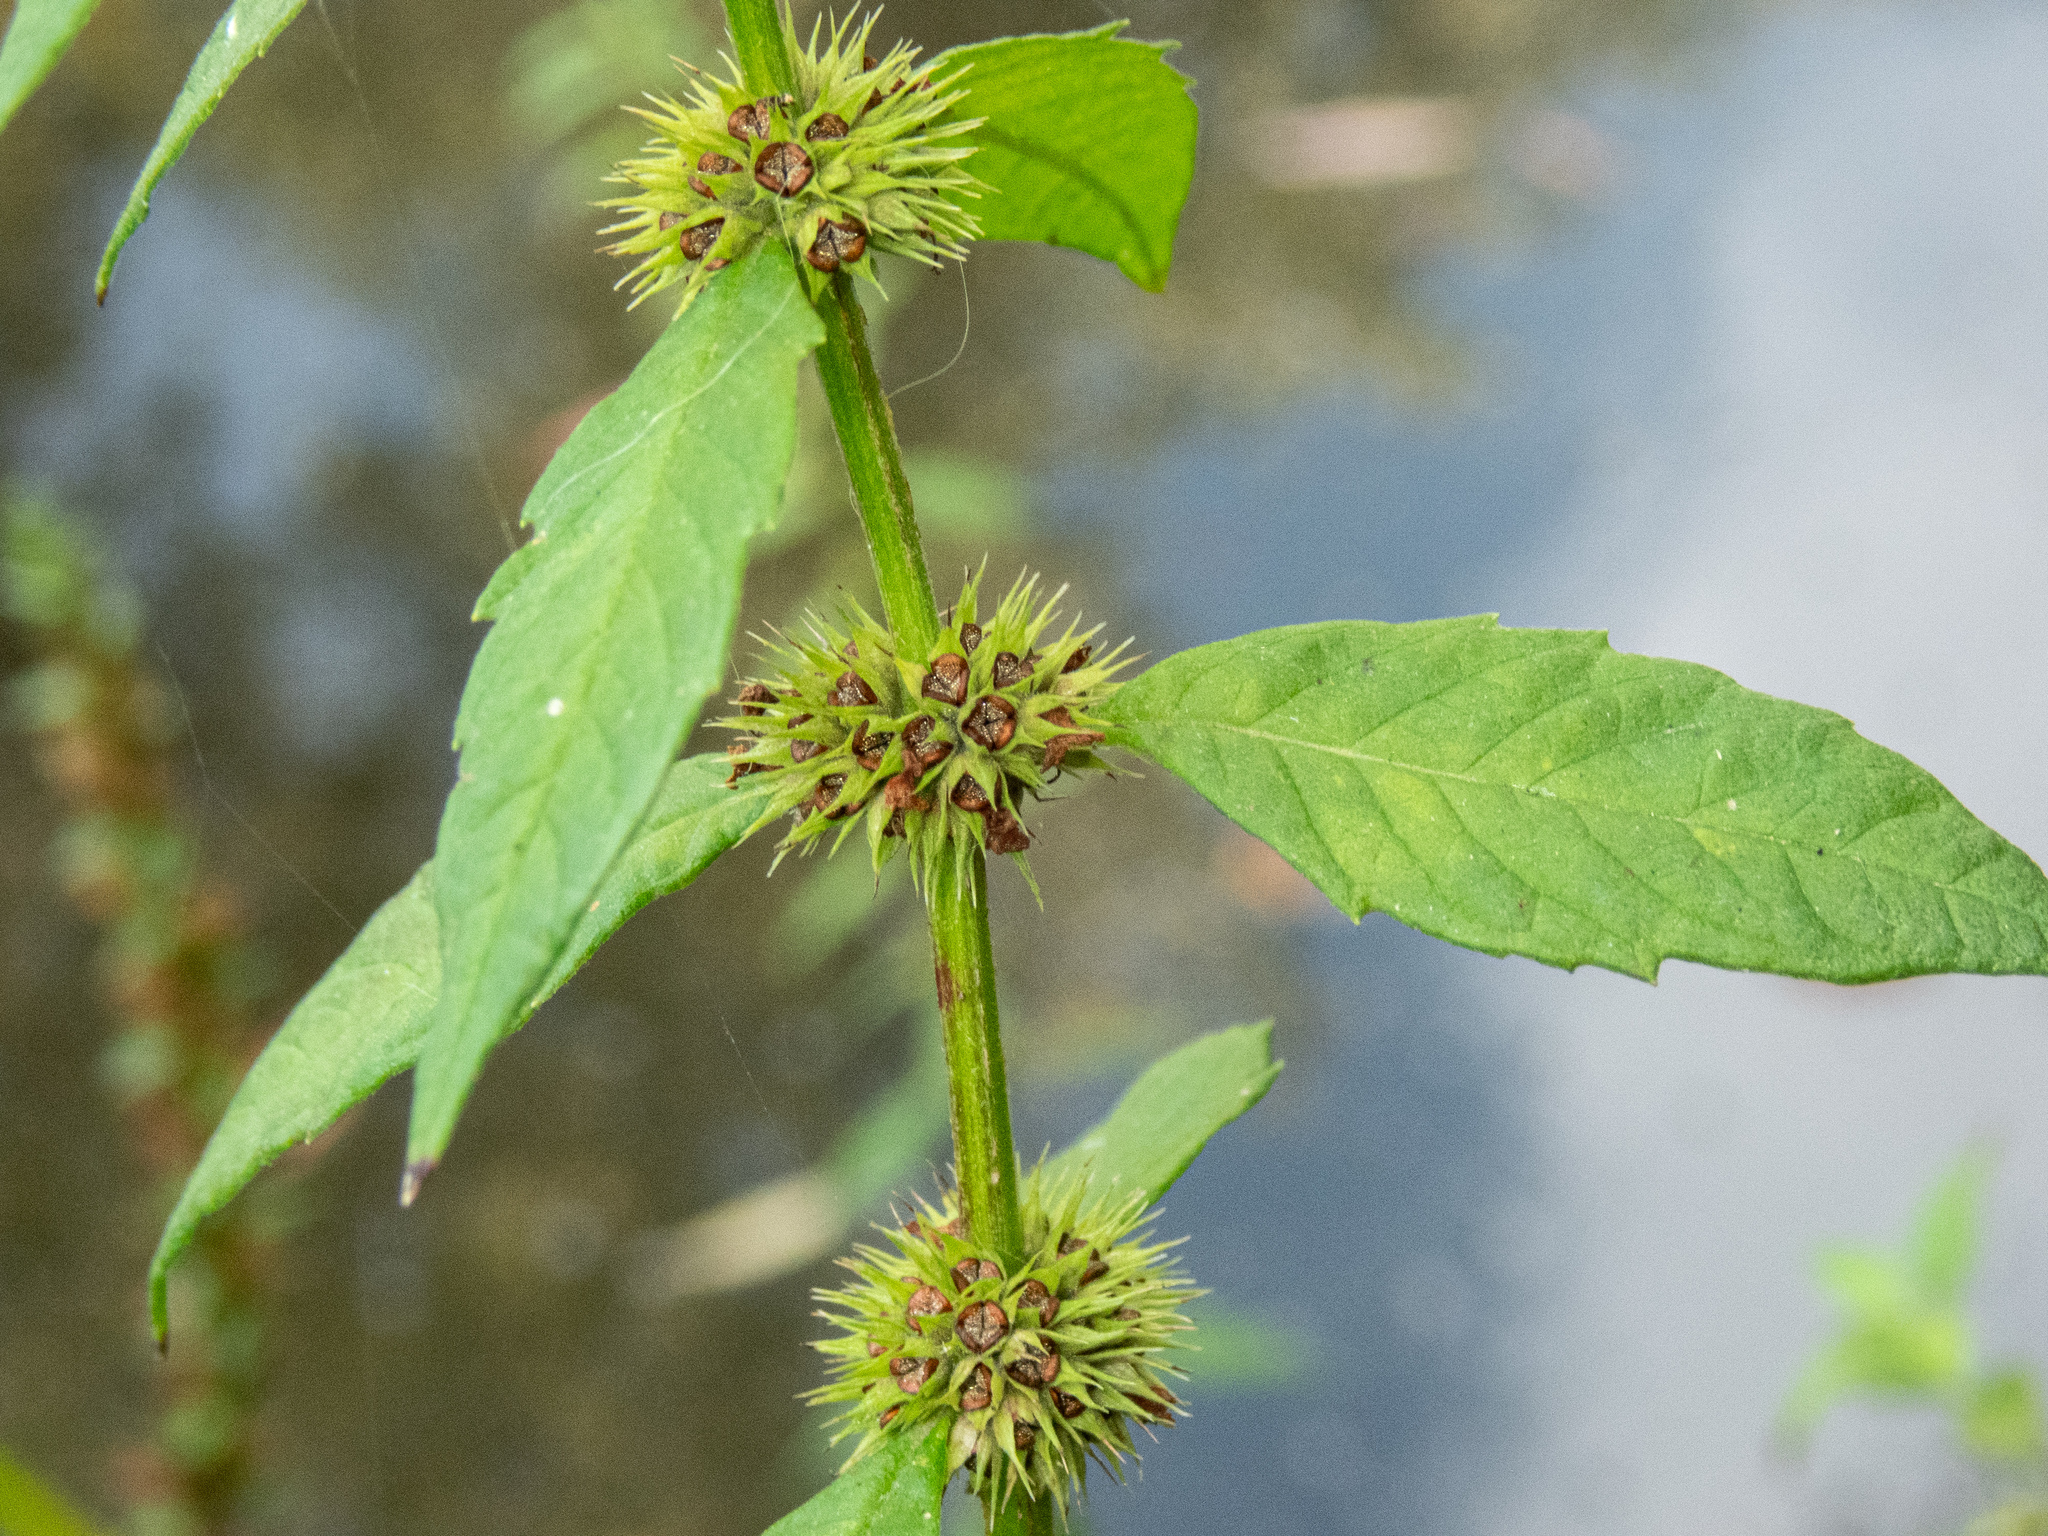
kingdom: Plantae
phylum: Tracheophyta
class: Magnoliopsida
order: Lamiales
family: Lamiaceae
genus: Lycopus
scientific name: Lycopus europaeus
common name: European bugleweed
